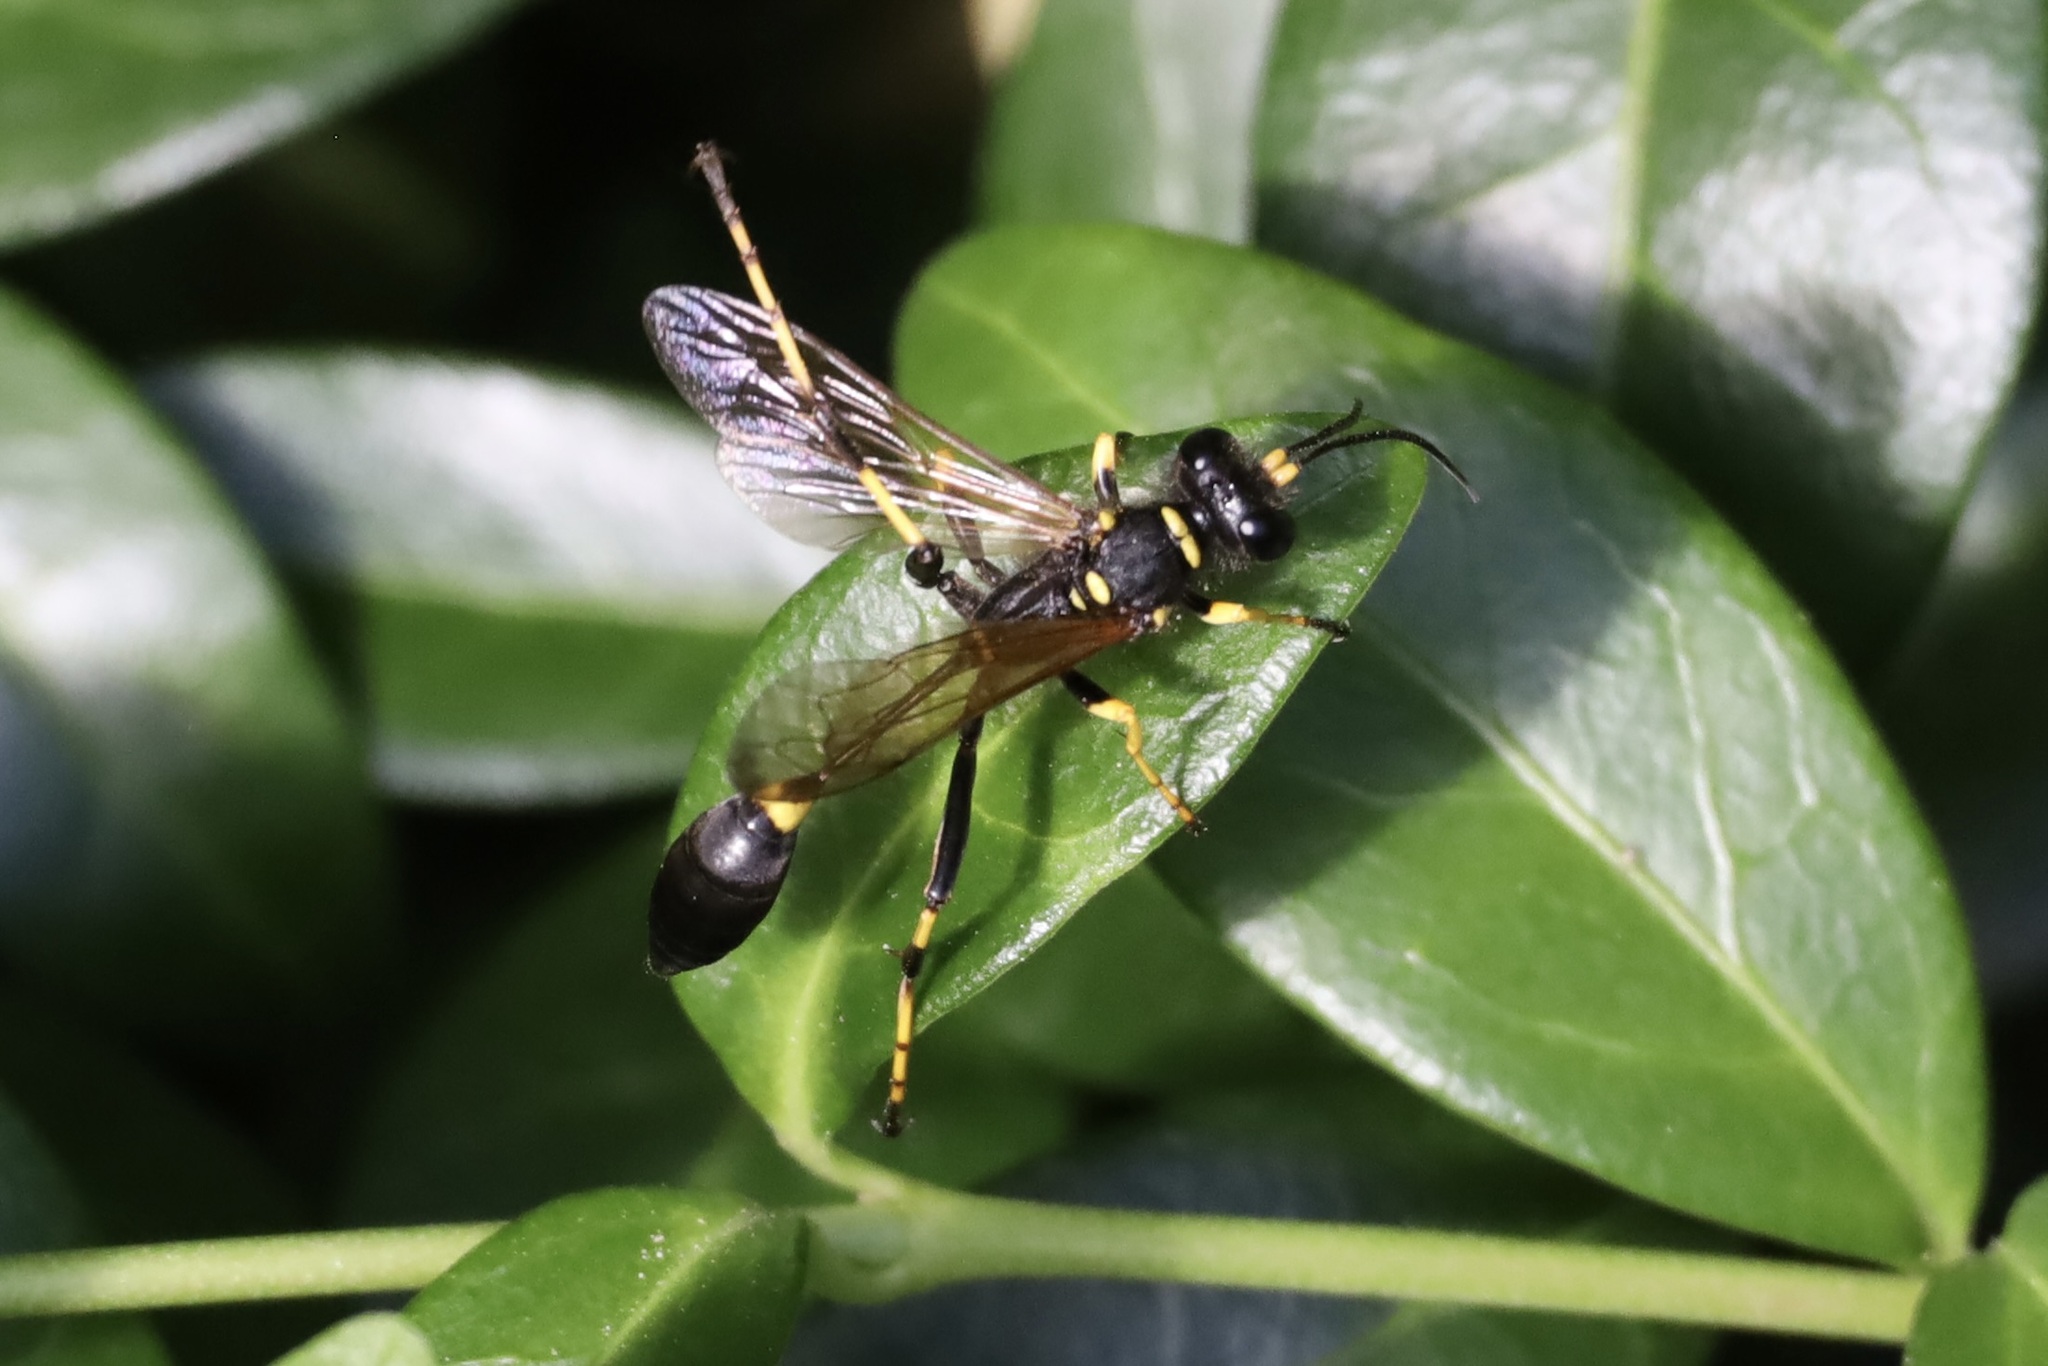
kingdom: Animalia
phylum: Arthropoda
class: Insecta
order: Hymenoptera
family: Sphecidae
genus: Sceliphron
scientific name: Sceliphron caementarium
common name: Mud dauber
